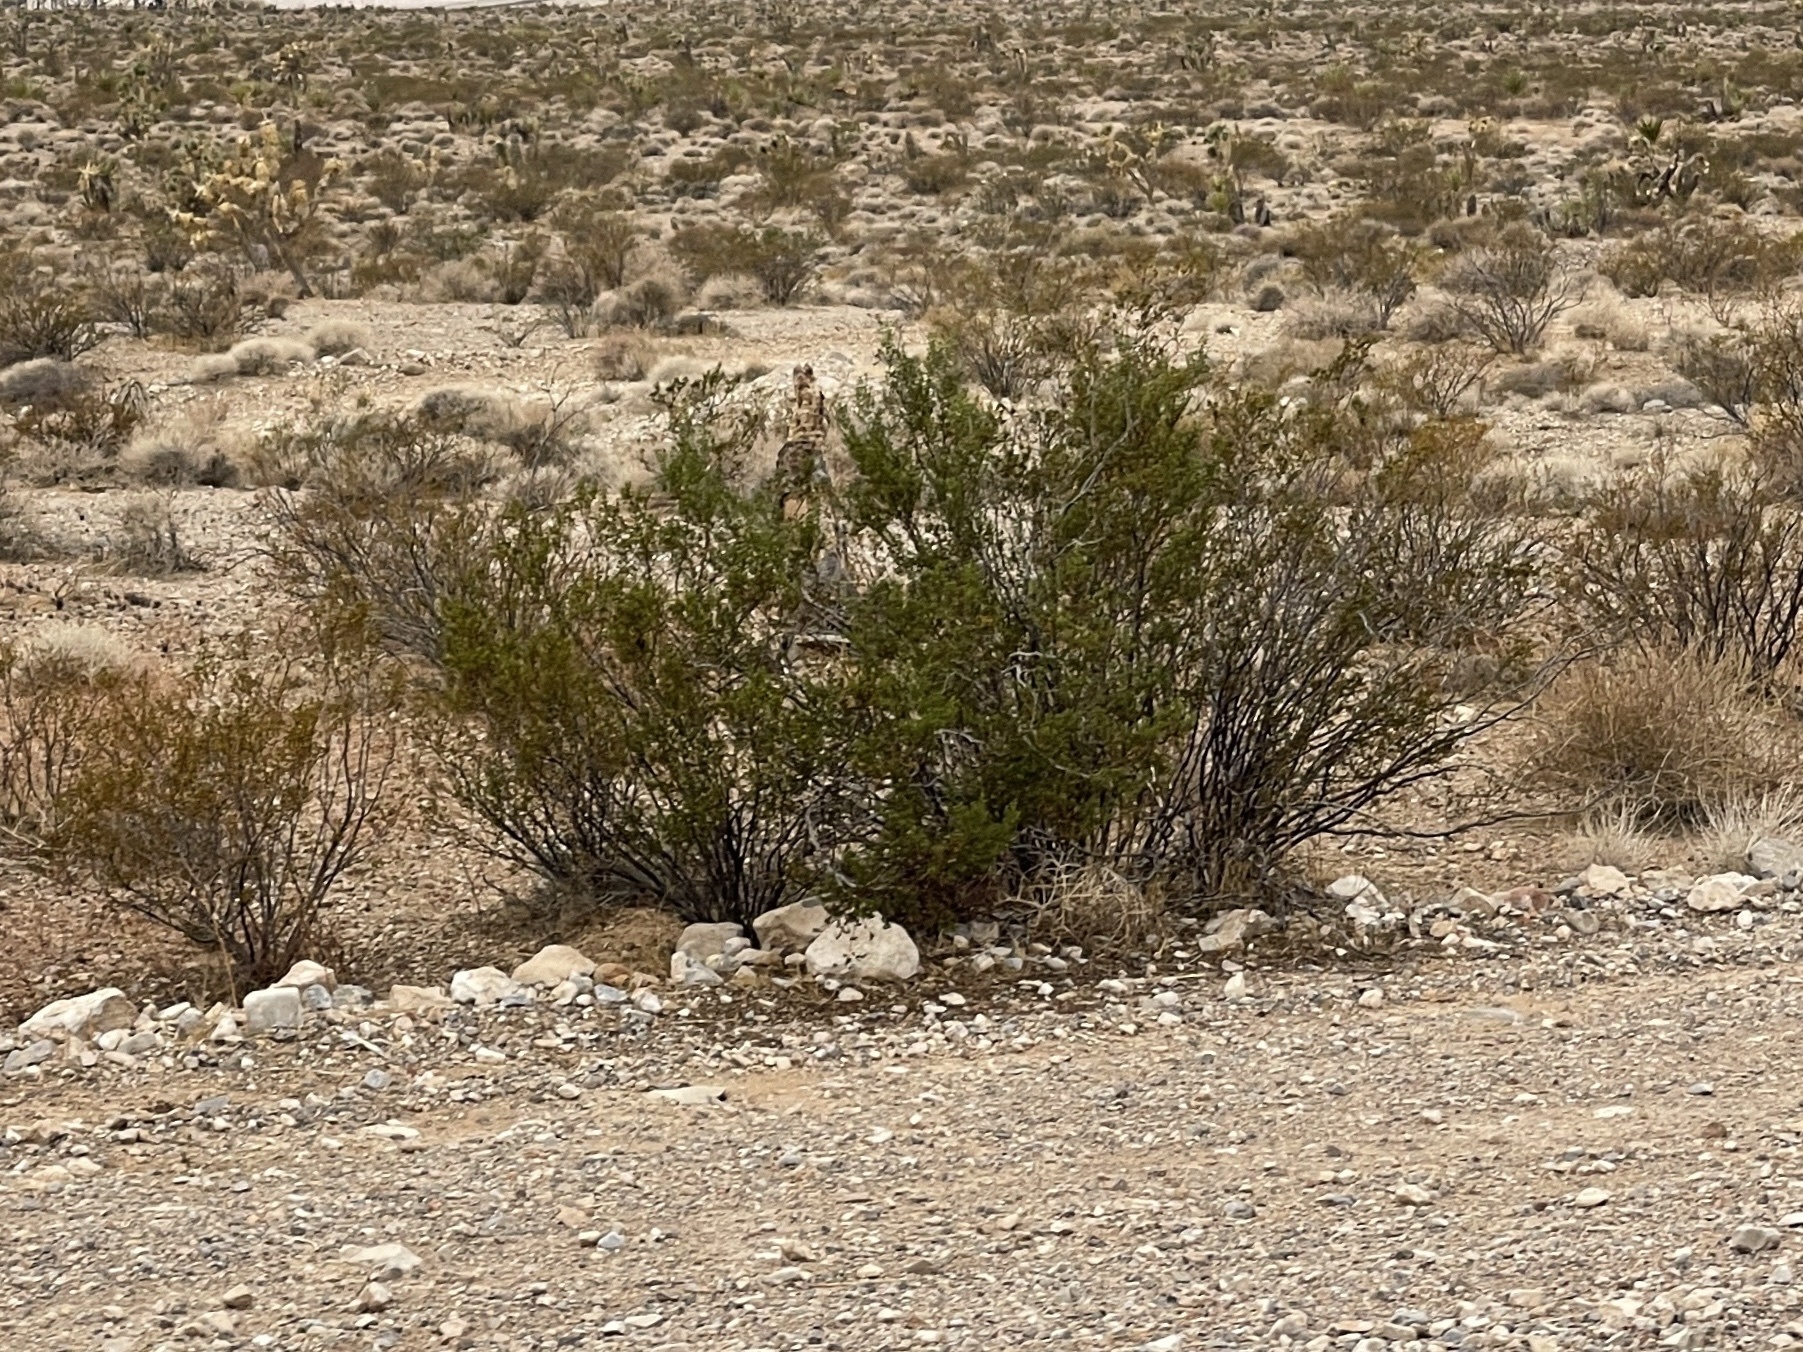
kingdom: Plantae
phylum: Tracheophyta
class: Magnoliopsida
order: Zygophyllales
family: Zygophyllaceae
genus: Larrea
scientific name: Larrea tridentata
